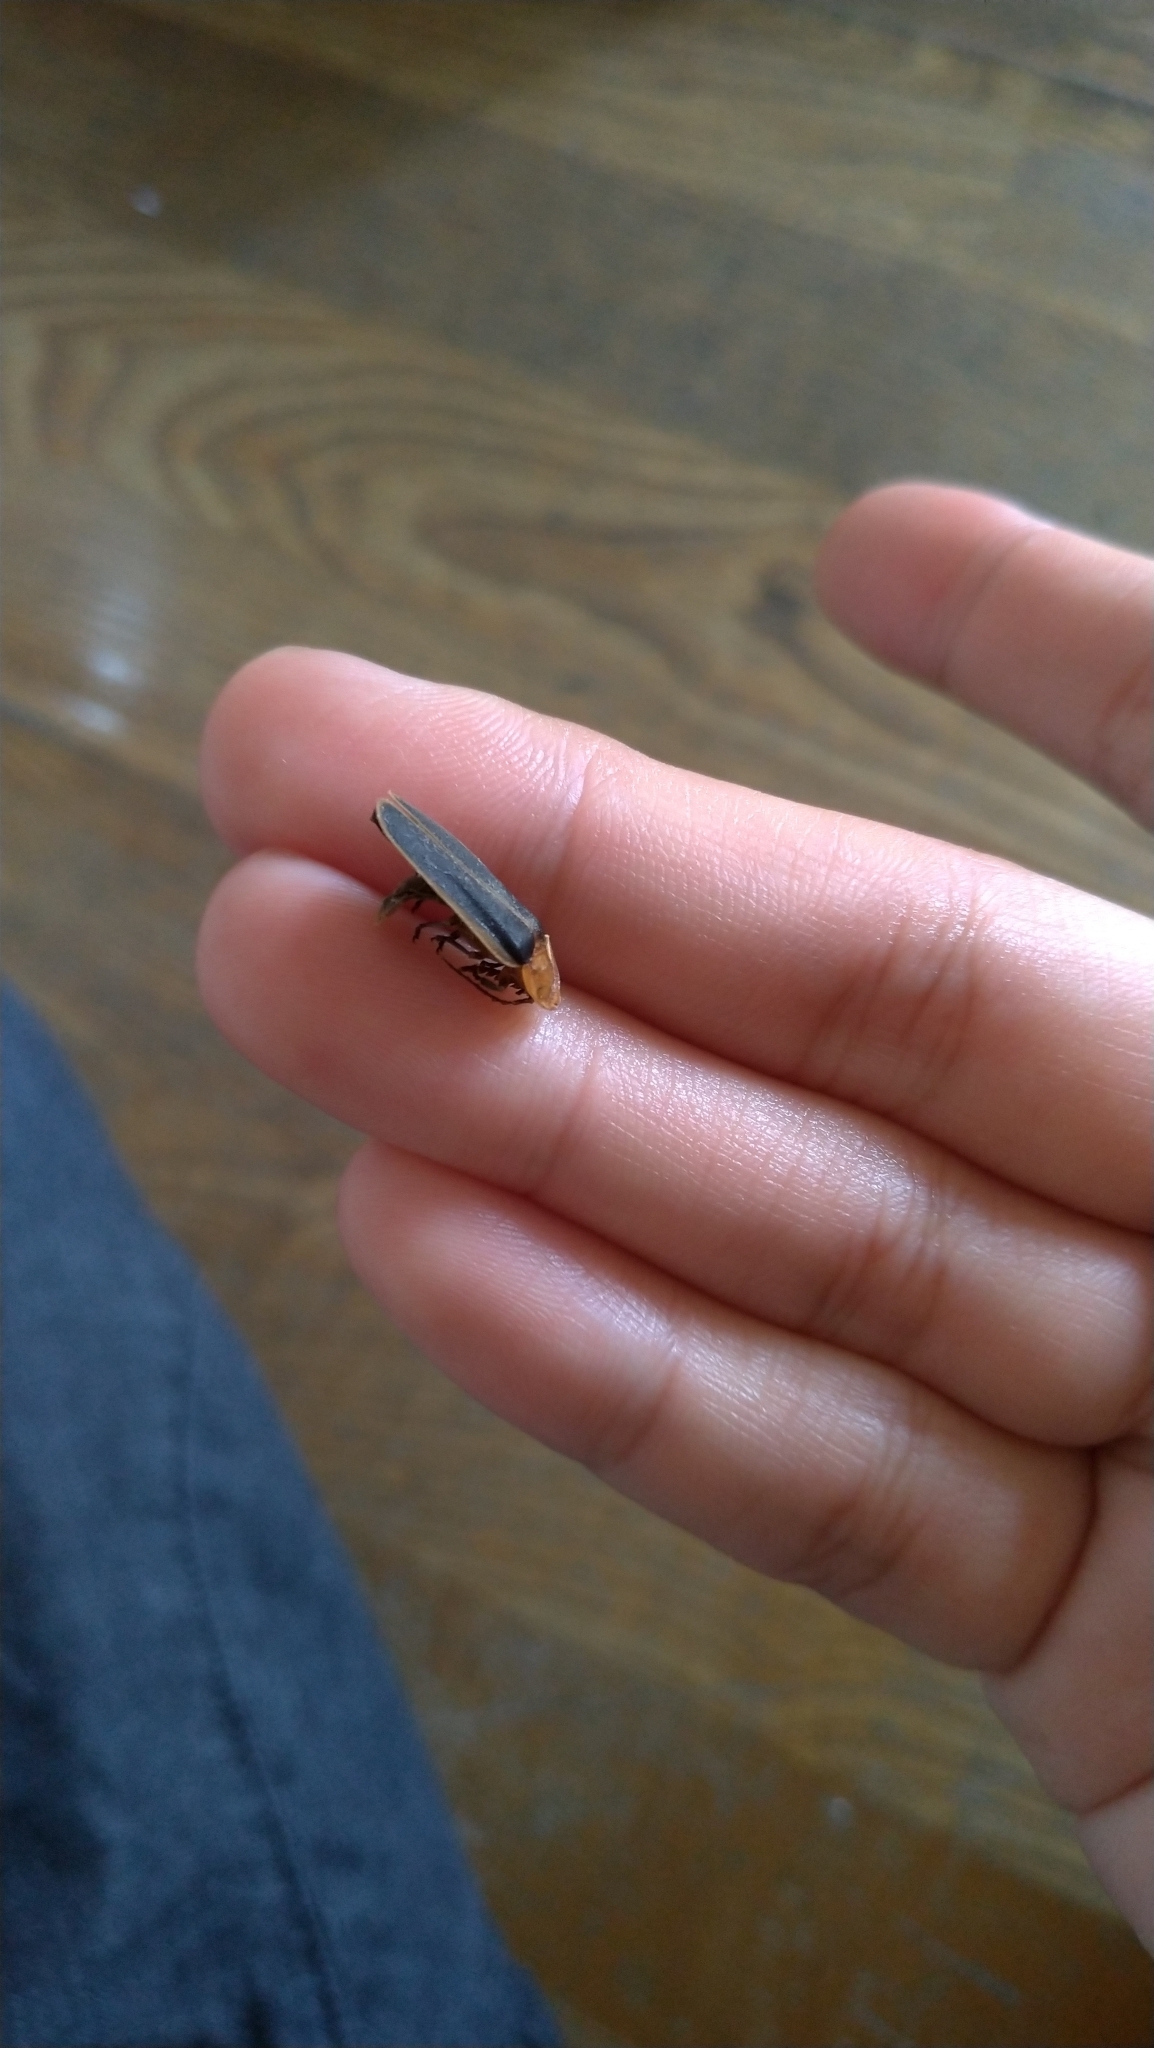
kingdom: Animalia
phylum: Arthropoda
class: Insecta
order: Coleoptera
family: Lampyridae
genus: Pyrocoelia
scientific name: Pyrocoelia analis
